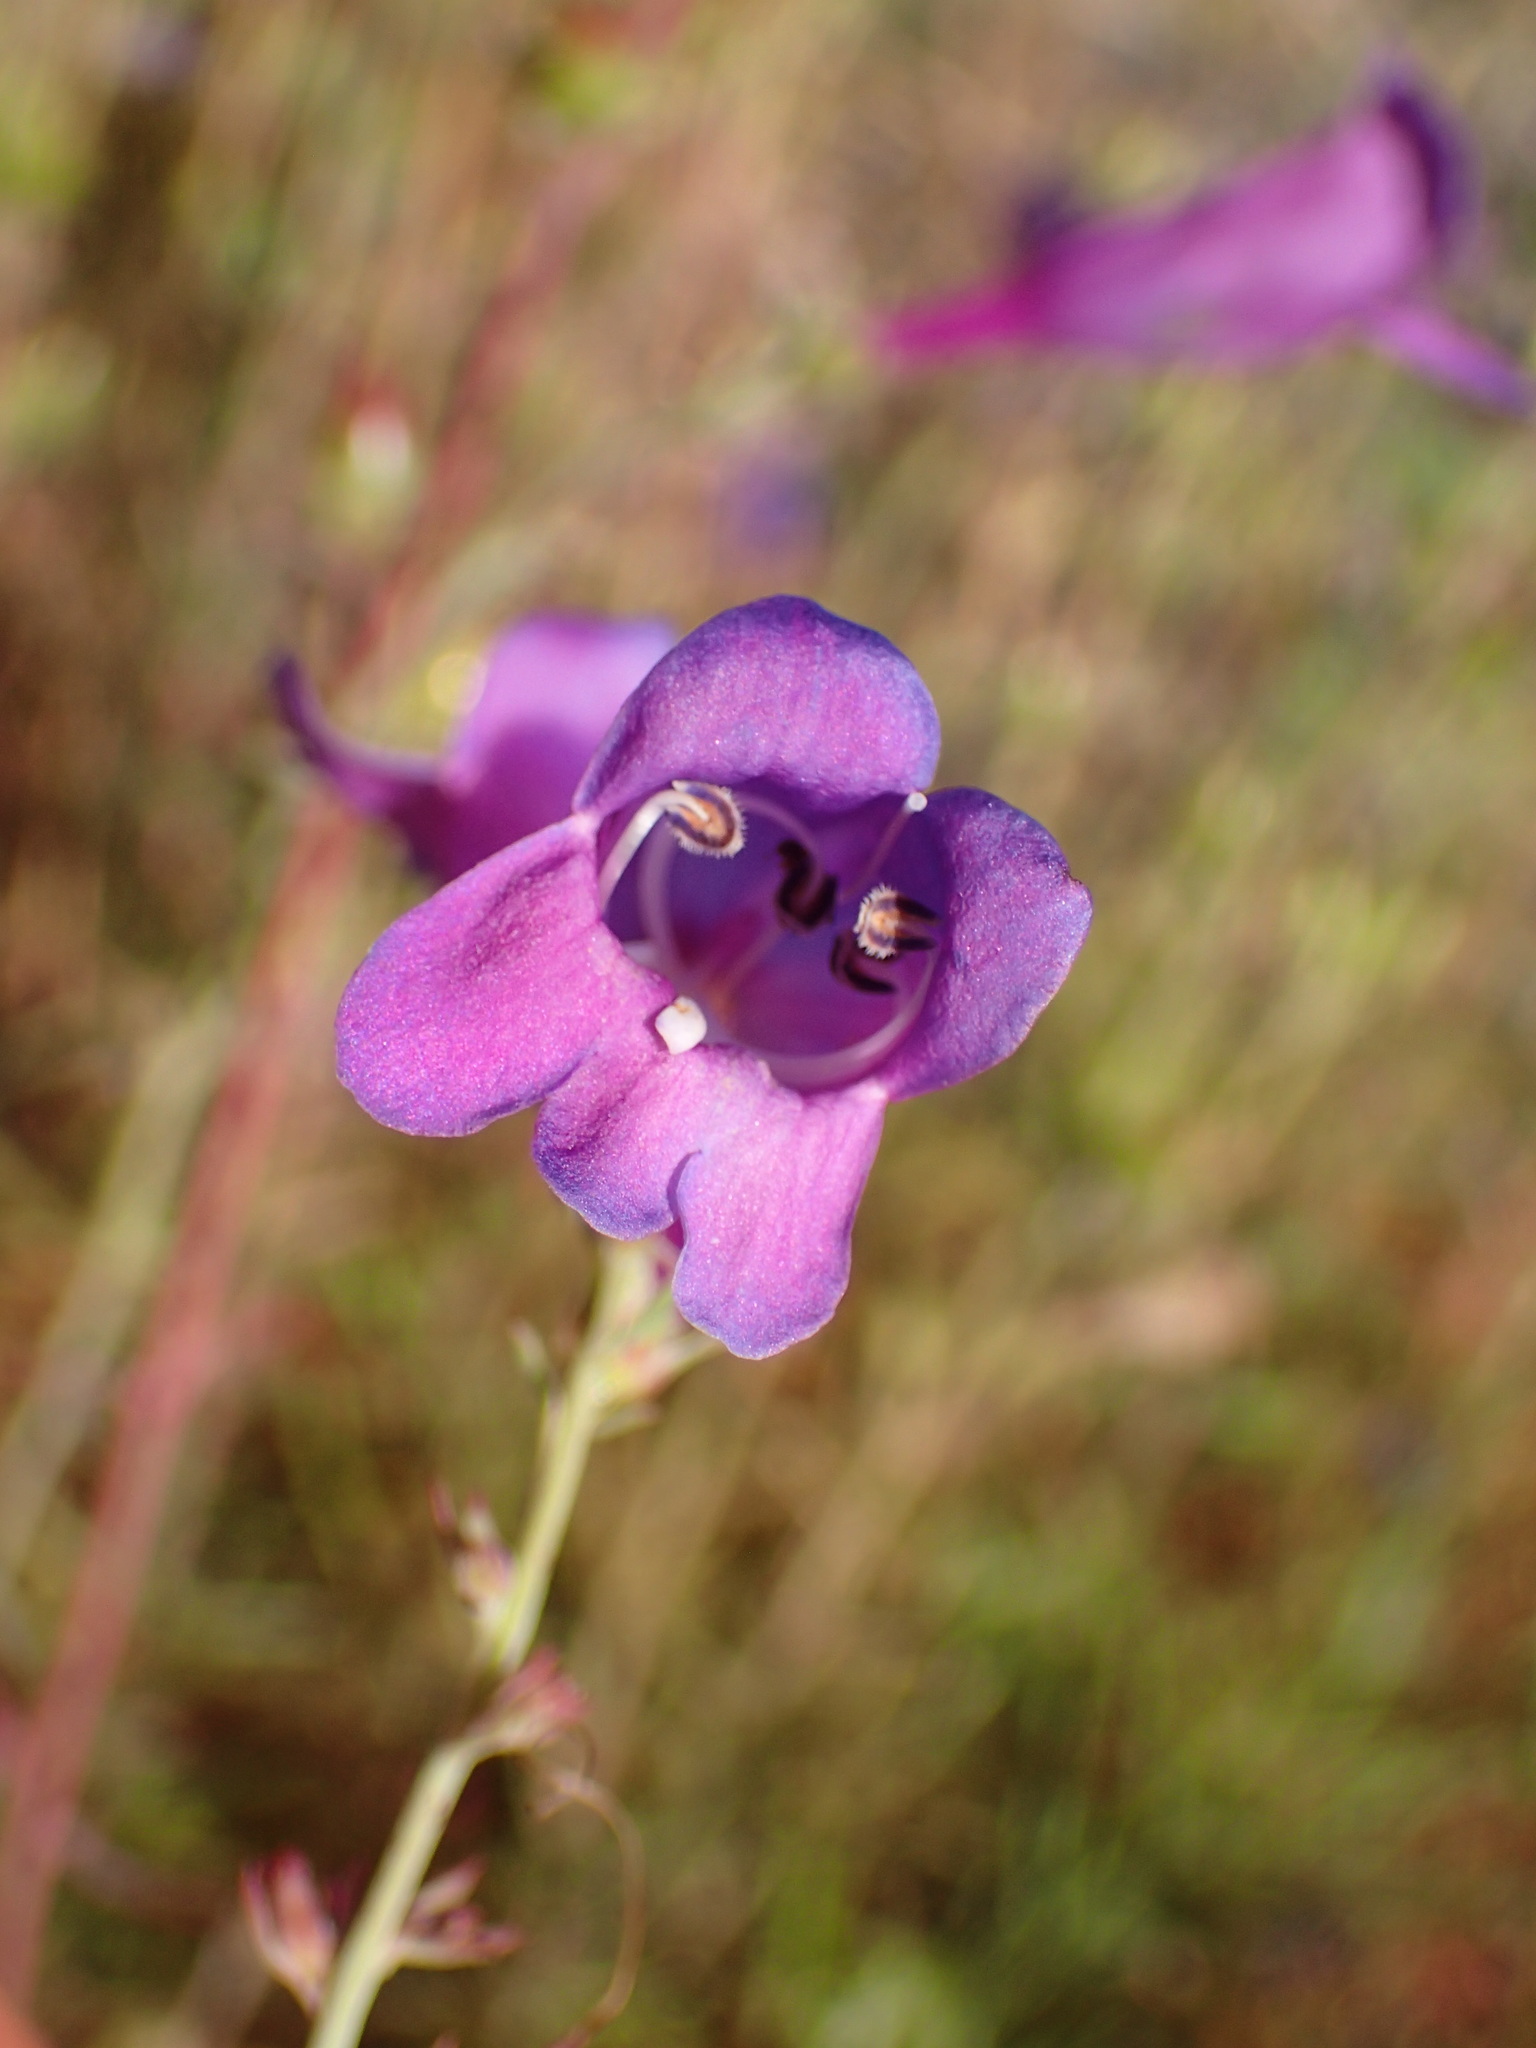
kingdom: Plantae
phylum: Tracheophyta
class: Magnoliopsida
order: Lamiales
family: Plantaginaceae
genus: Penstemon
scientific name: Penstemon heterophyllus
